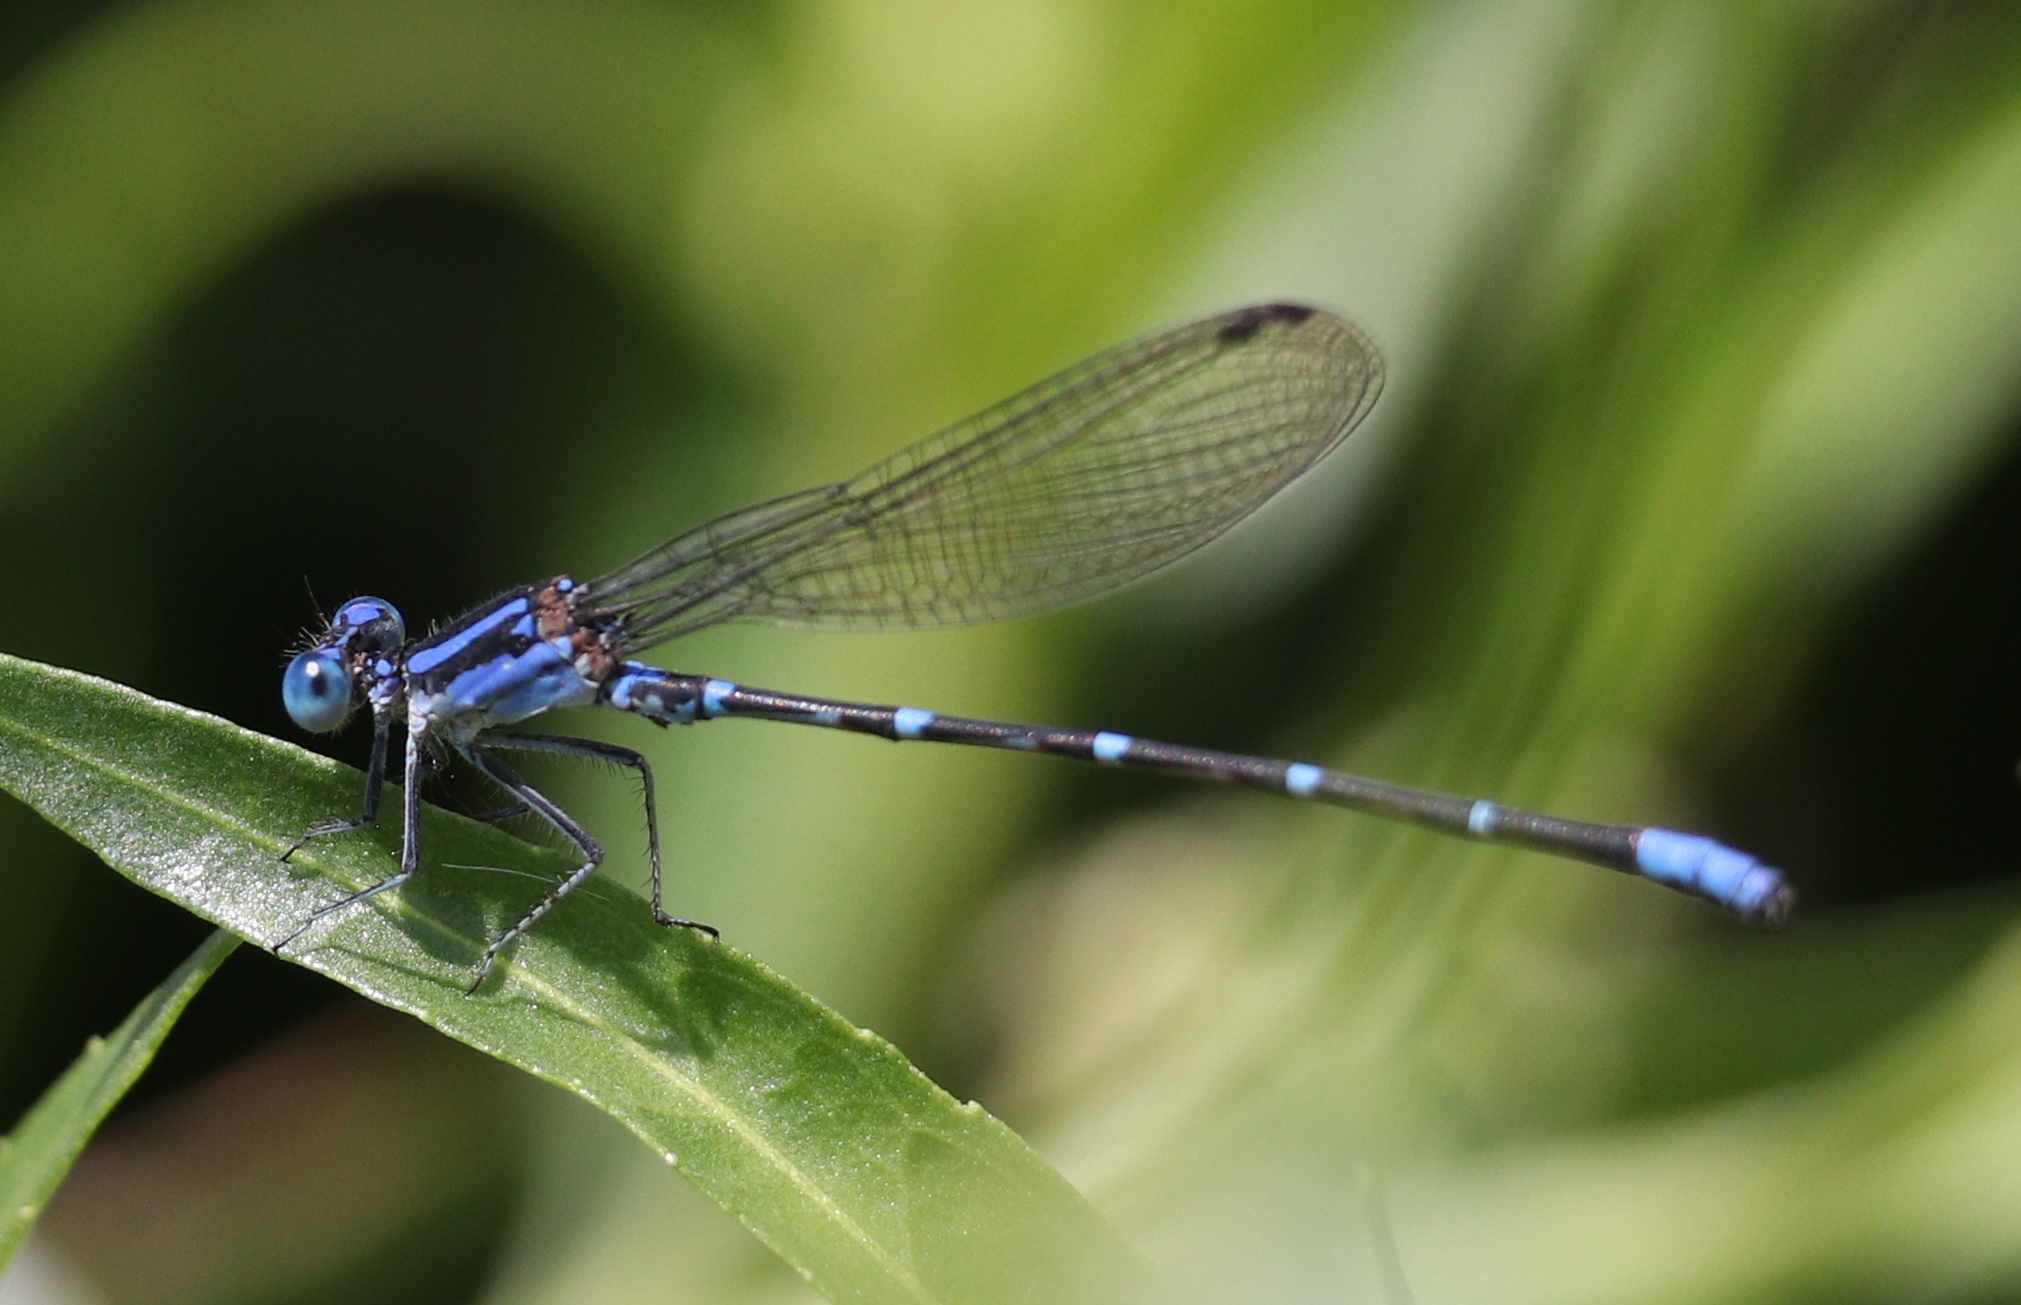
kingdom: Animalia
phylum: Arthropoda
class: Insecta
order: Odonata
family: Coenagrionidae
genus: Argia
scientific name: Argia sedula
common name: Blue-ringed dancer
